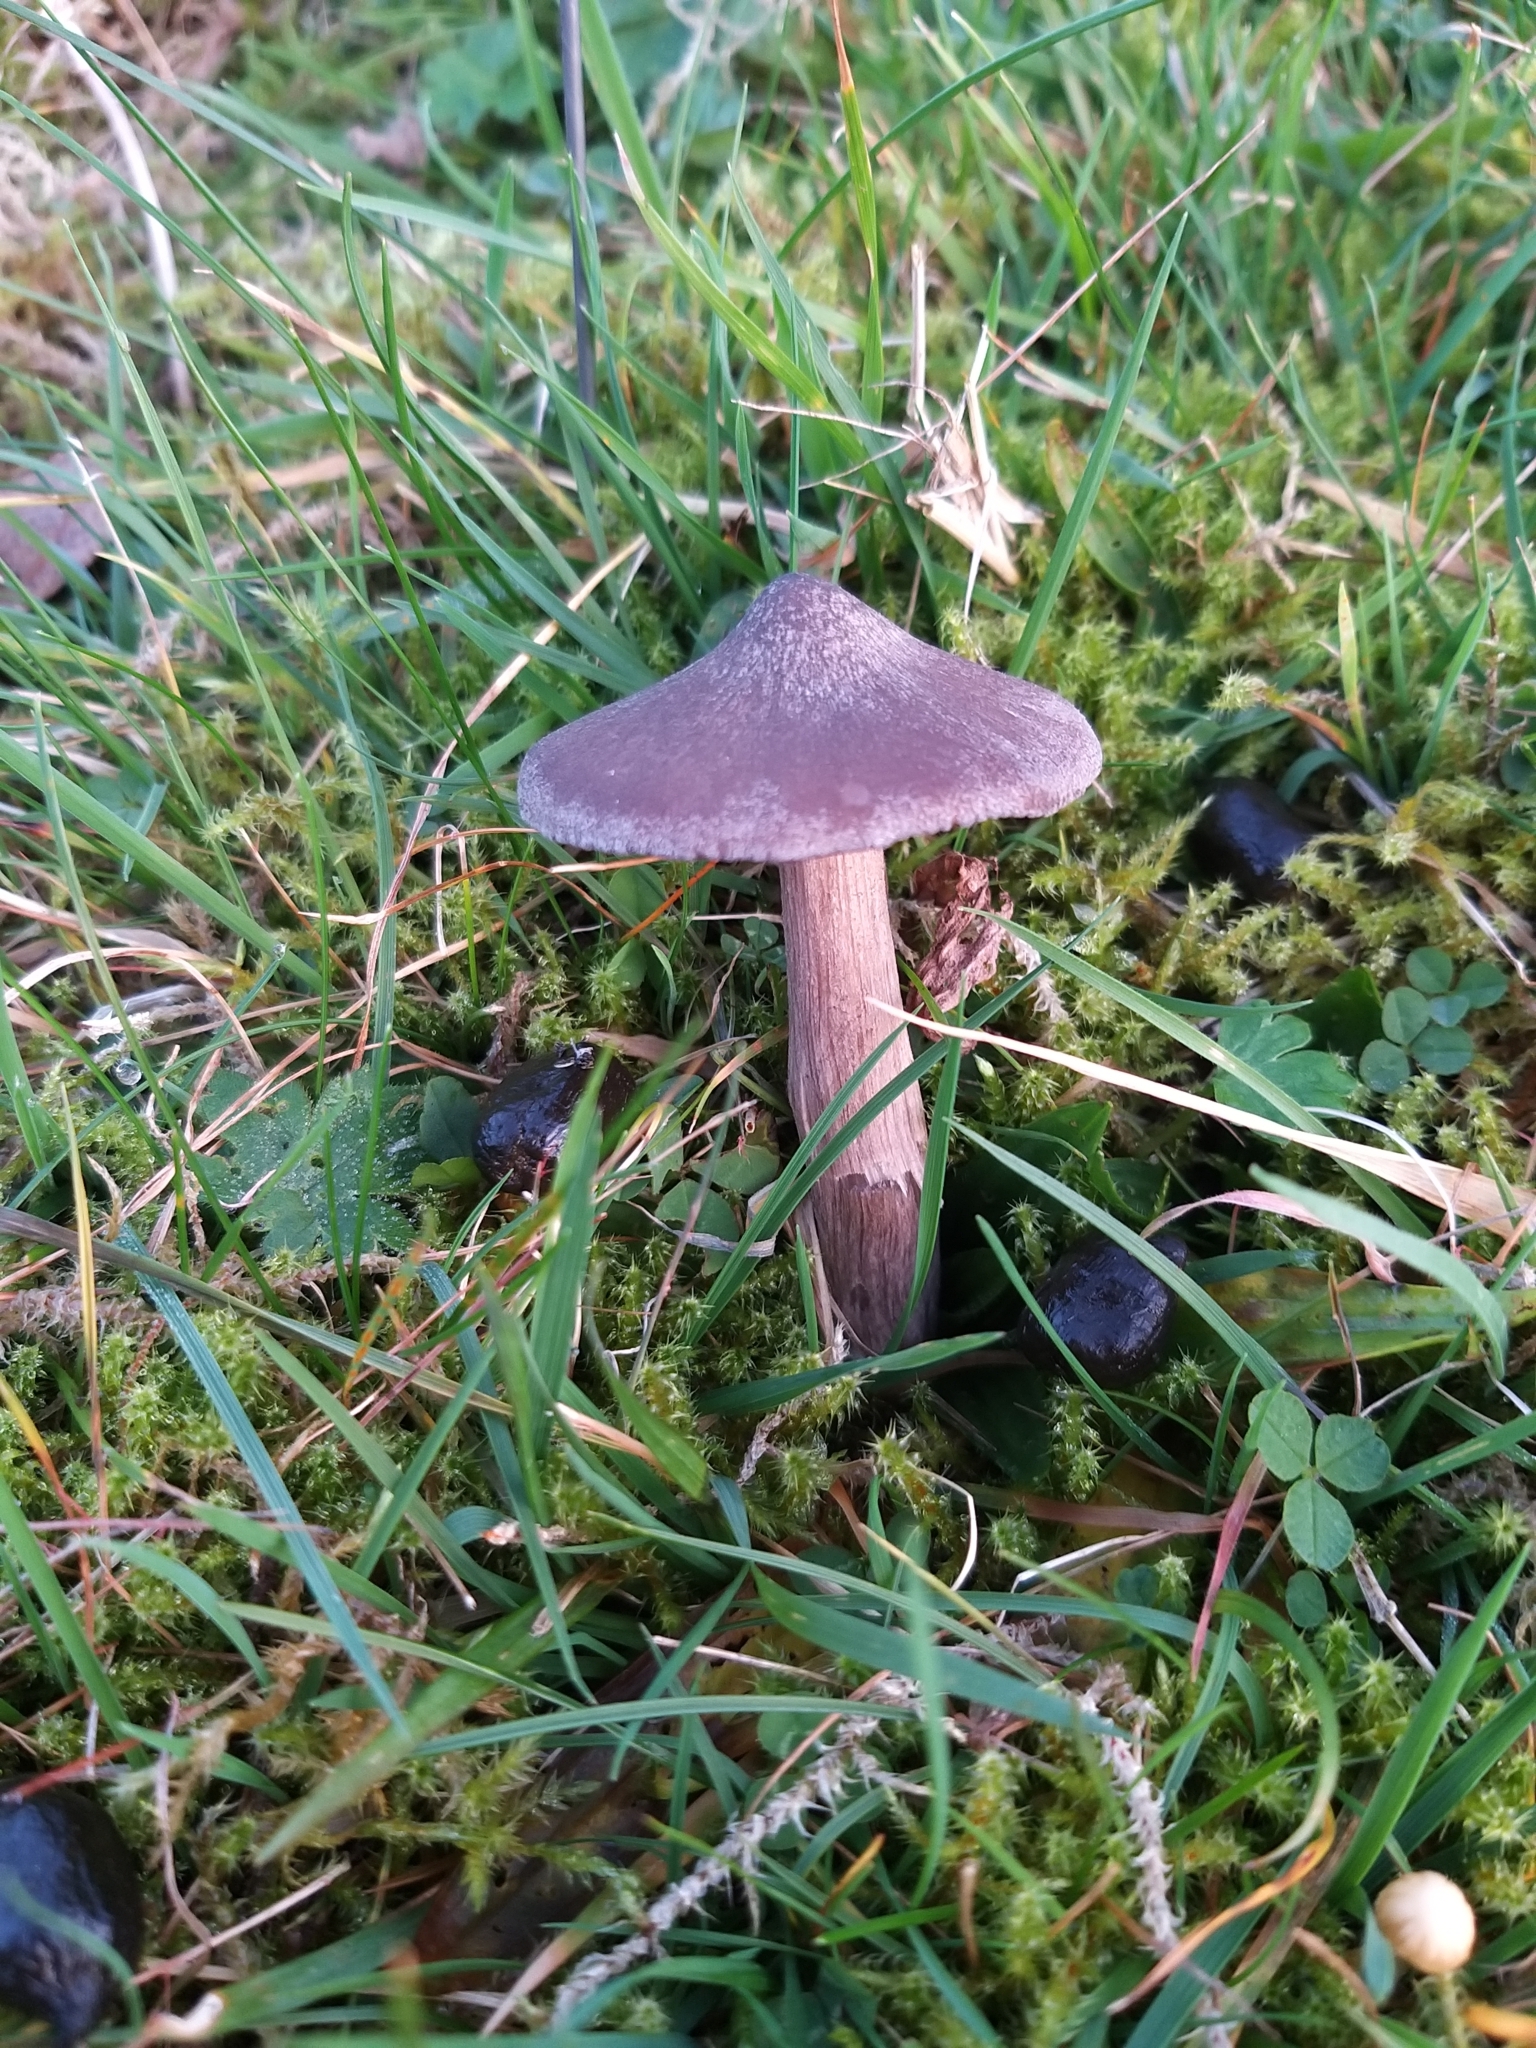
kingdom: Fungi
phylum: Basidiomycota
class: Agaricomycetes
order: Agaricales
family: Entolomataceae
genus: Entoloma
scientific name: Entoloma porphyrophaeum
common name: Lilac pinkgill
